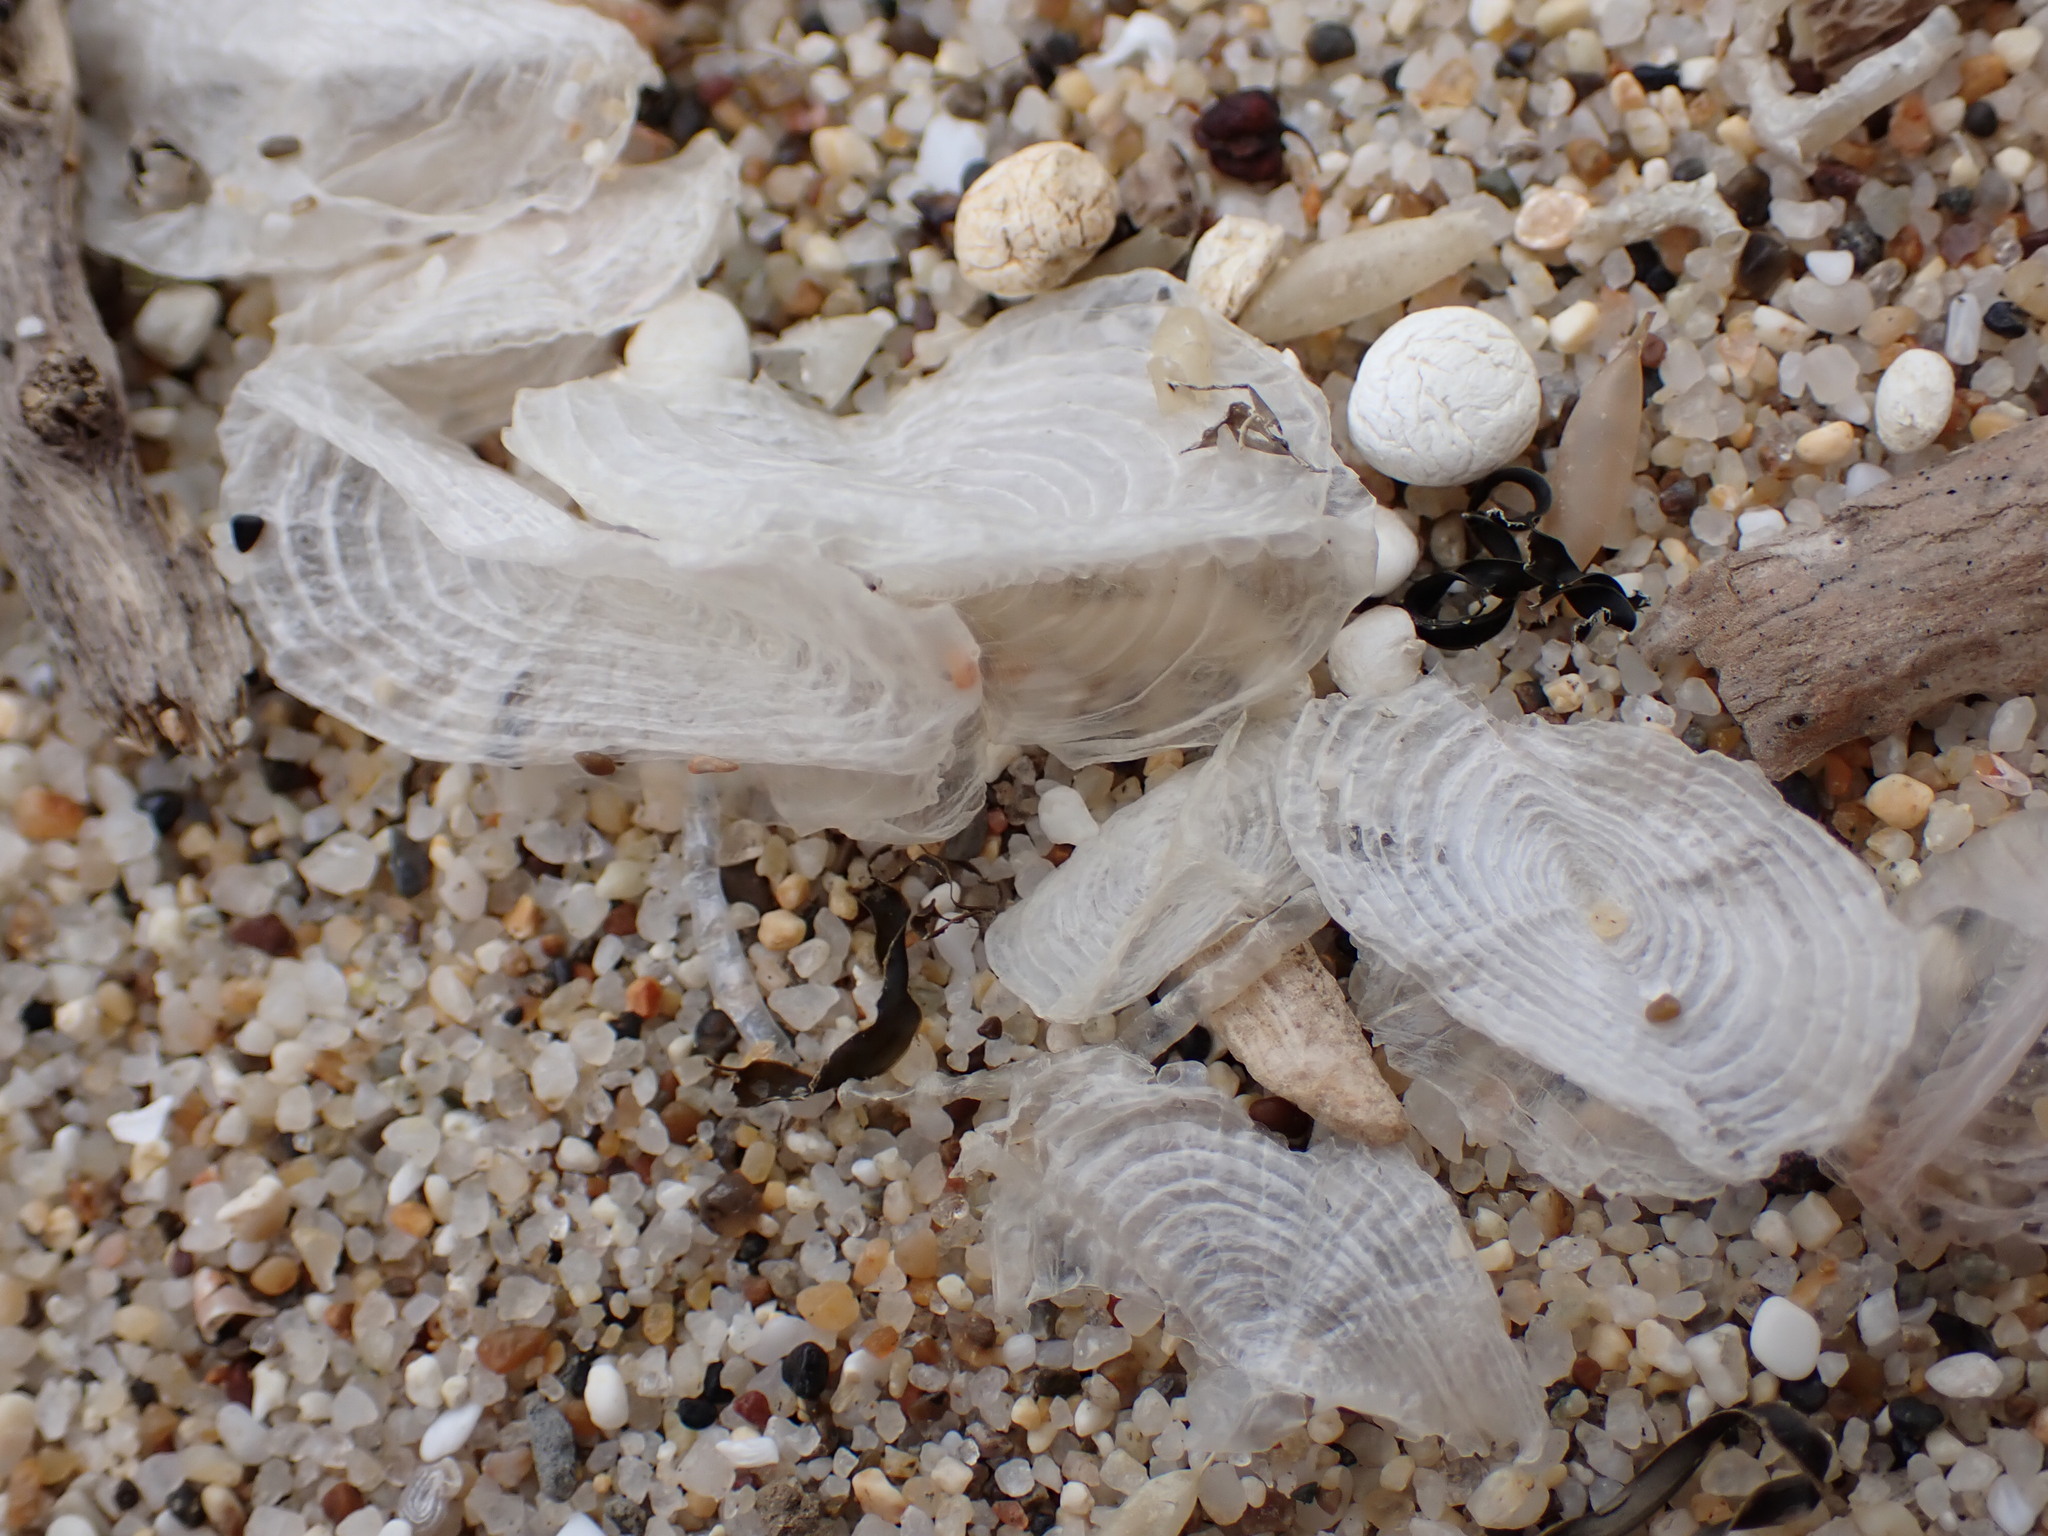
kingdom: Animalia
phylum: Cnidaria
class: Hydrozoa
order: Anthoathecata
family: Porpitidae
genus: Velella
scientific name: Velella velella
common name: By-the-wind-sailor
